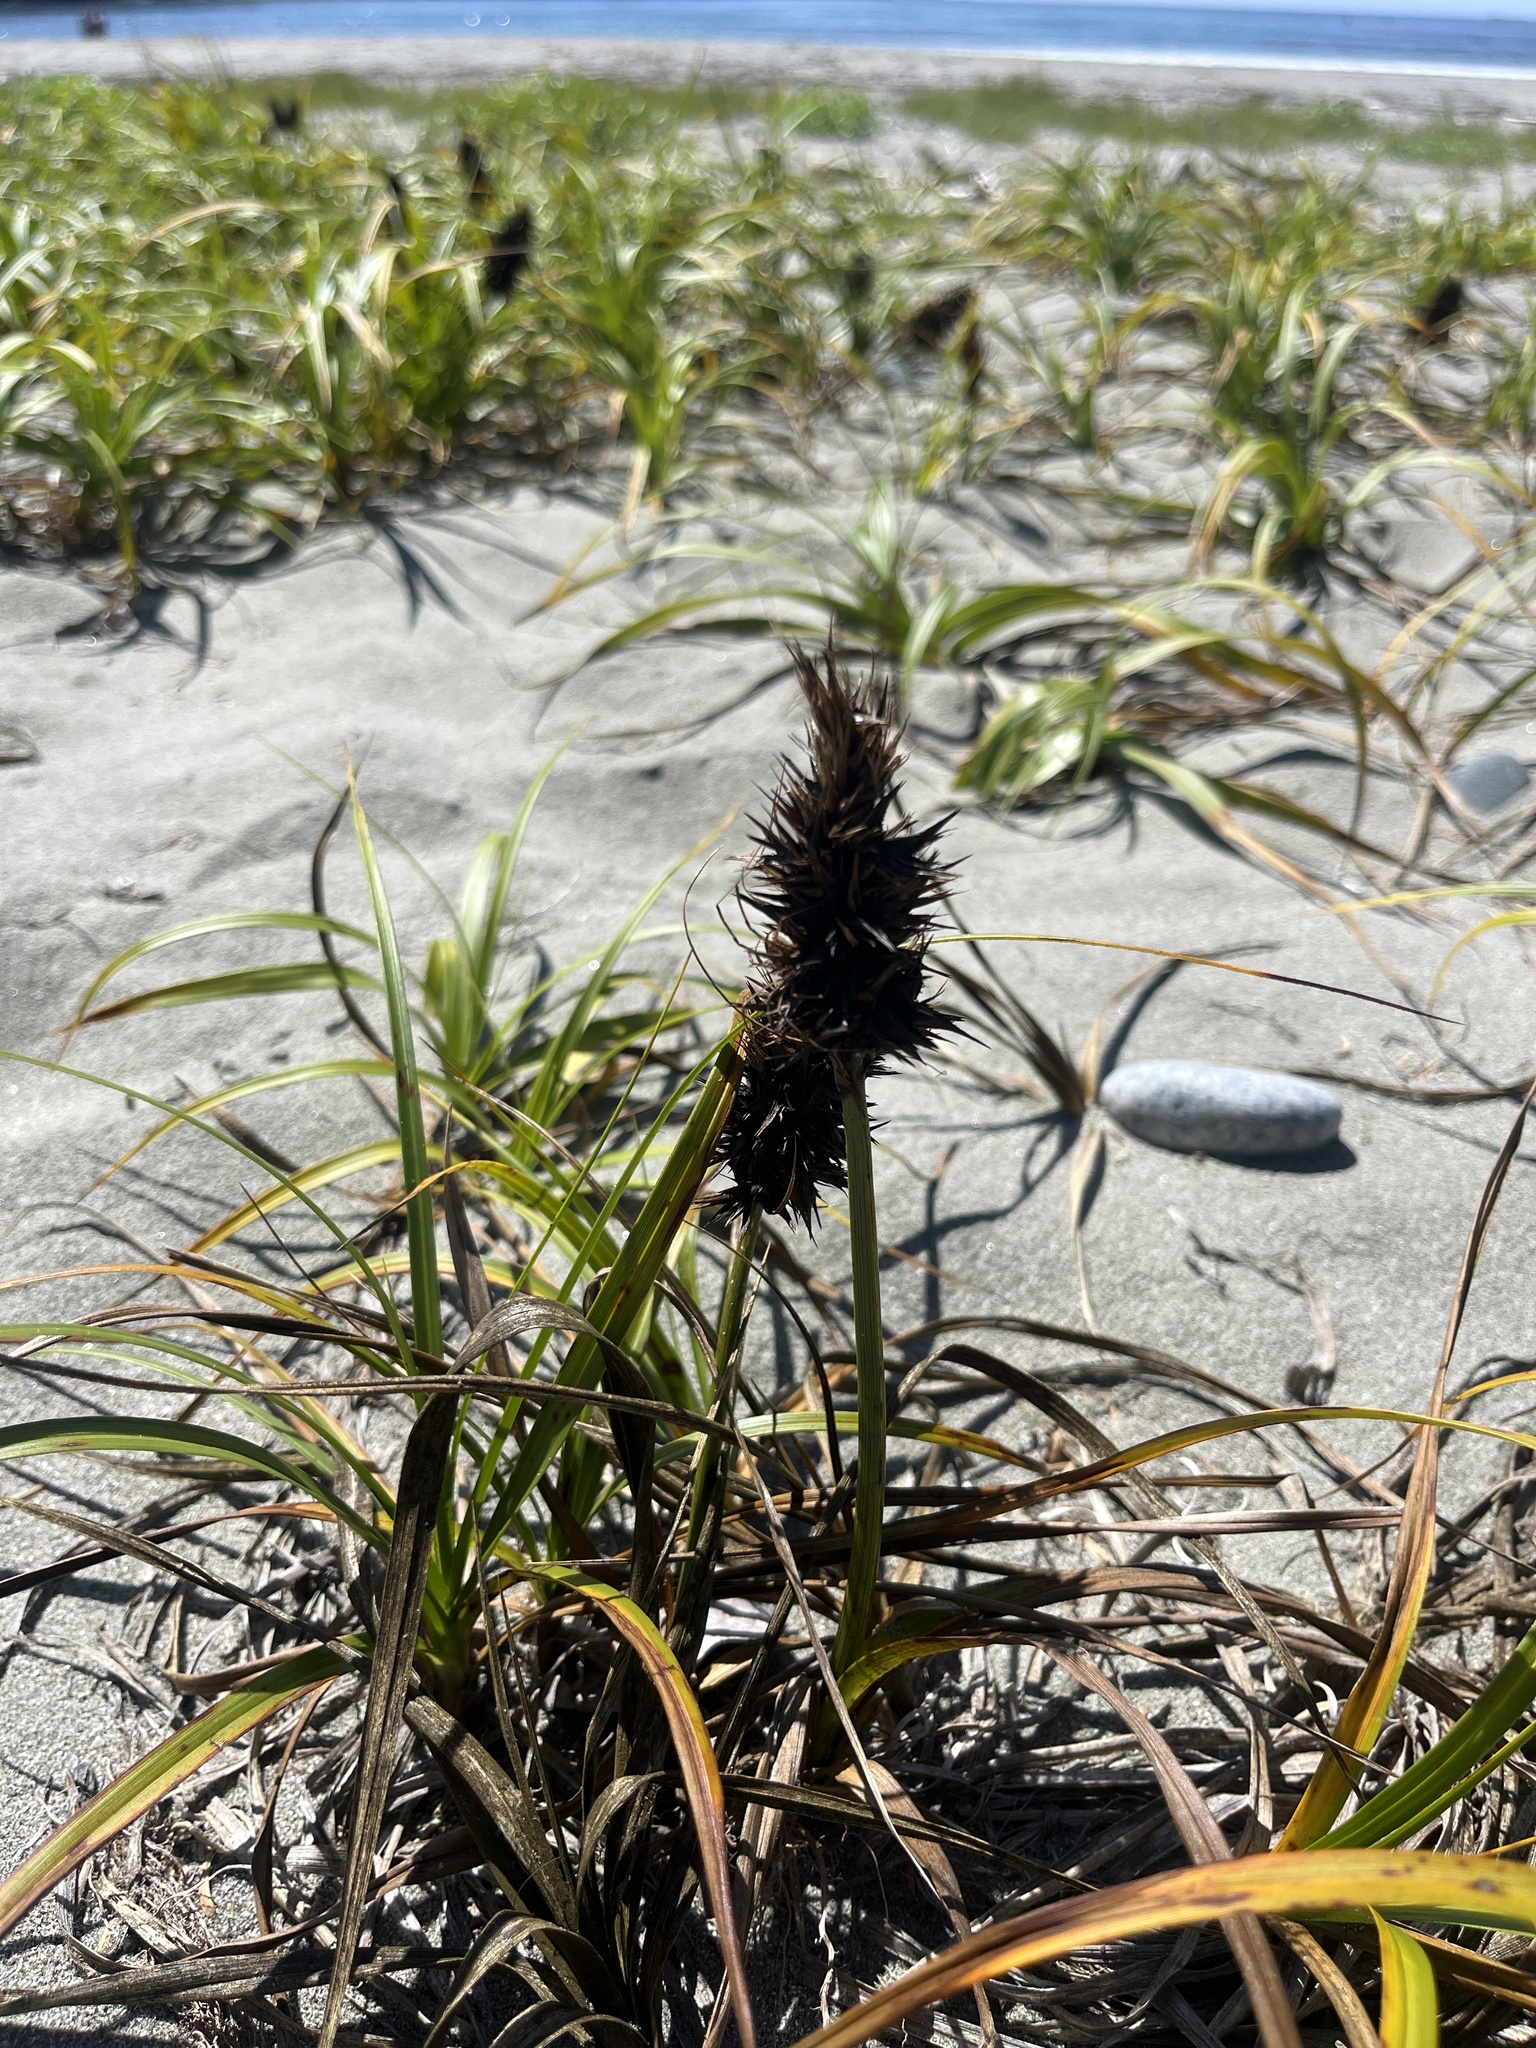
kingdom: Plantae
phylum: Tracheophyta
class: Liliopsida
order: Poales
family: Cyperaceae
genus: Carex
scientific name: Carex macrocephala
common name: Large-head sedge
